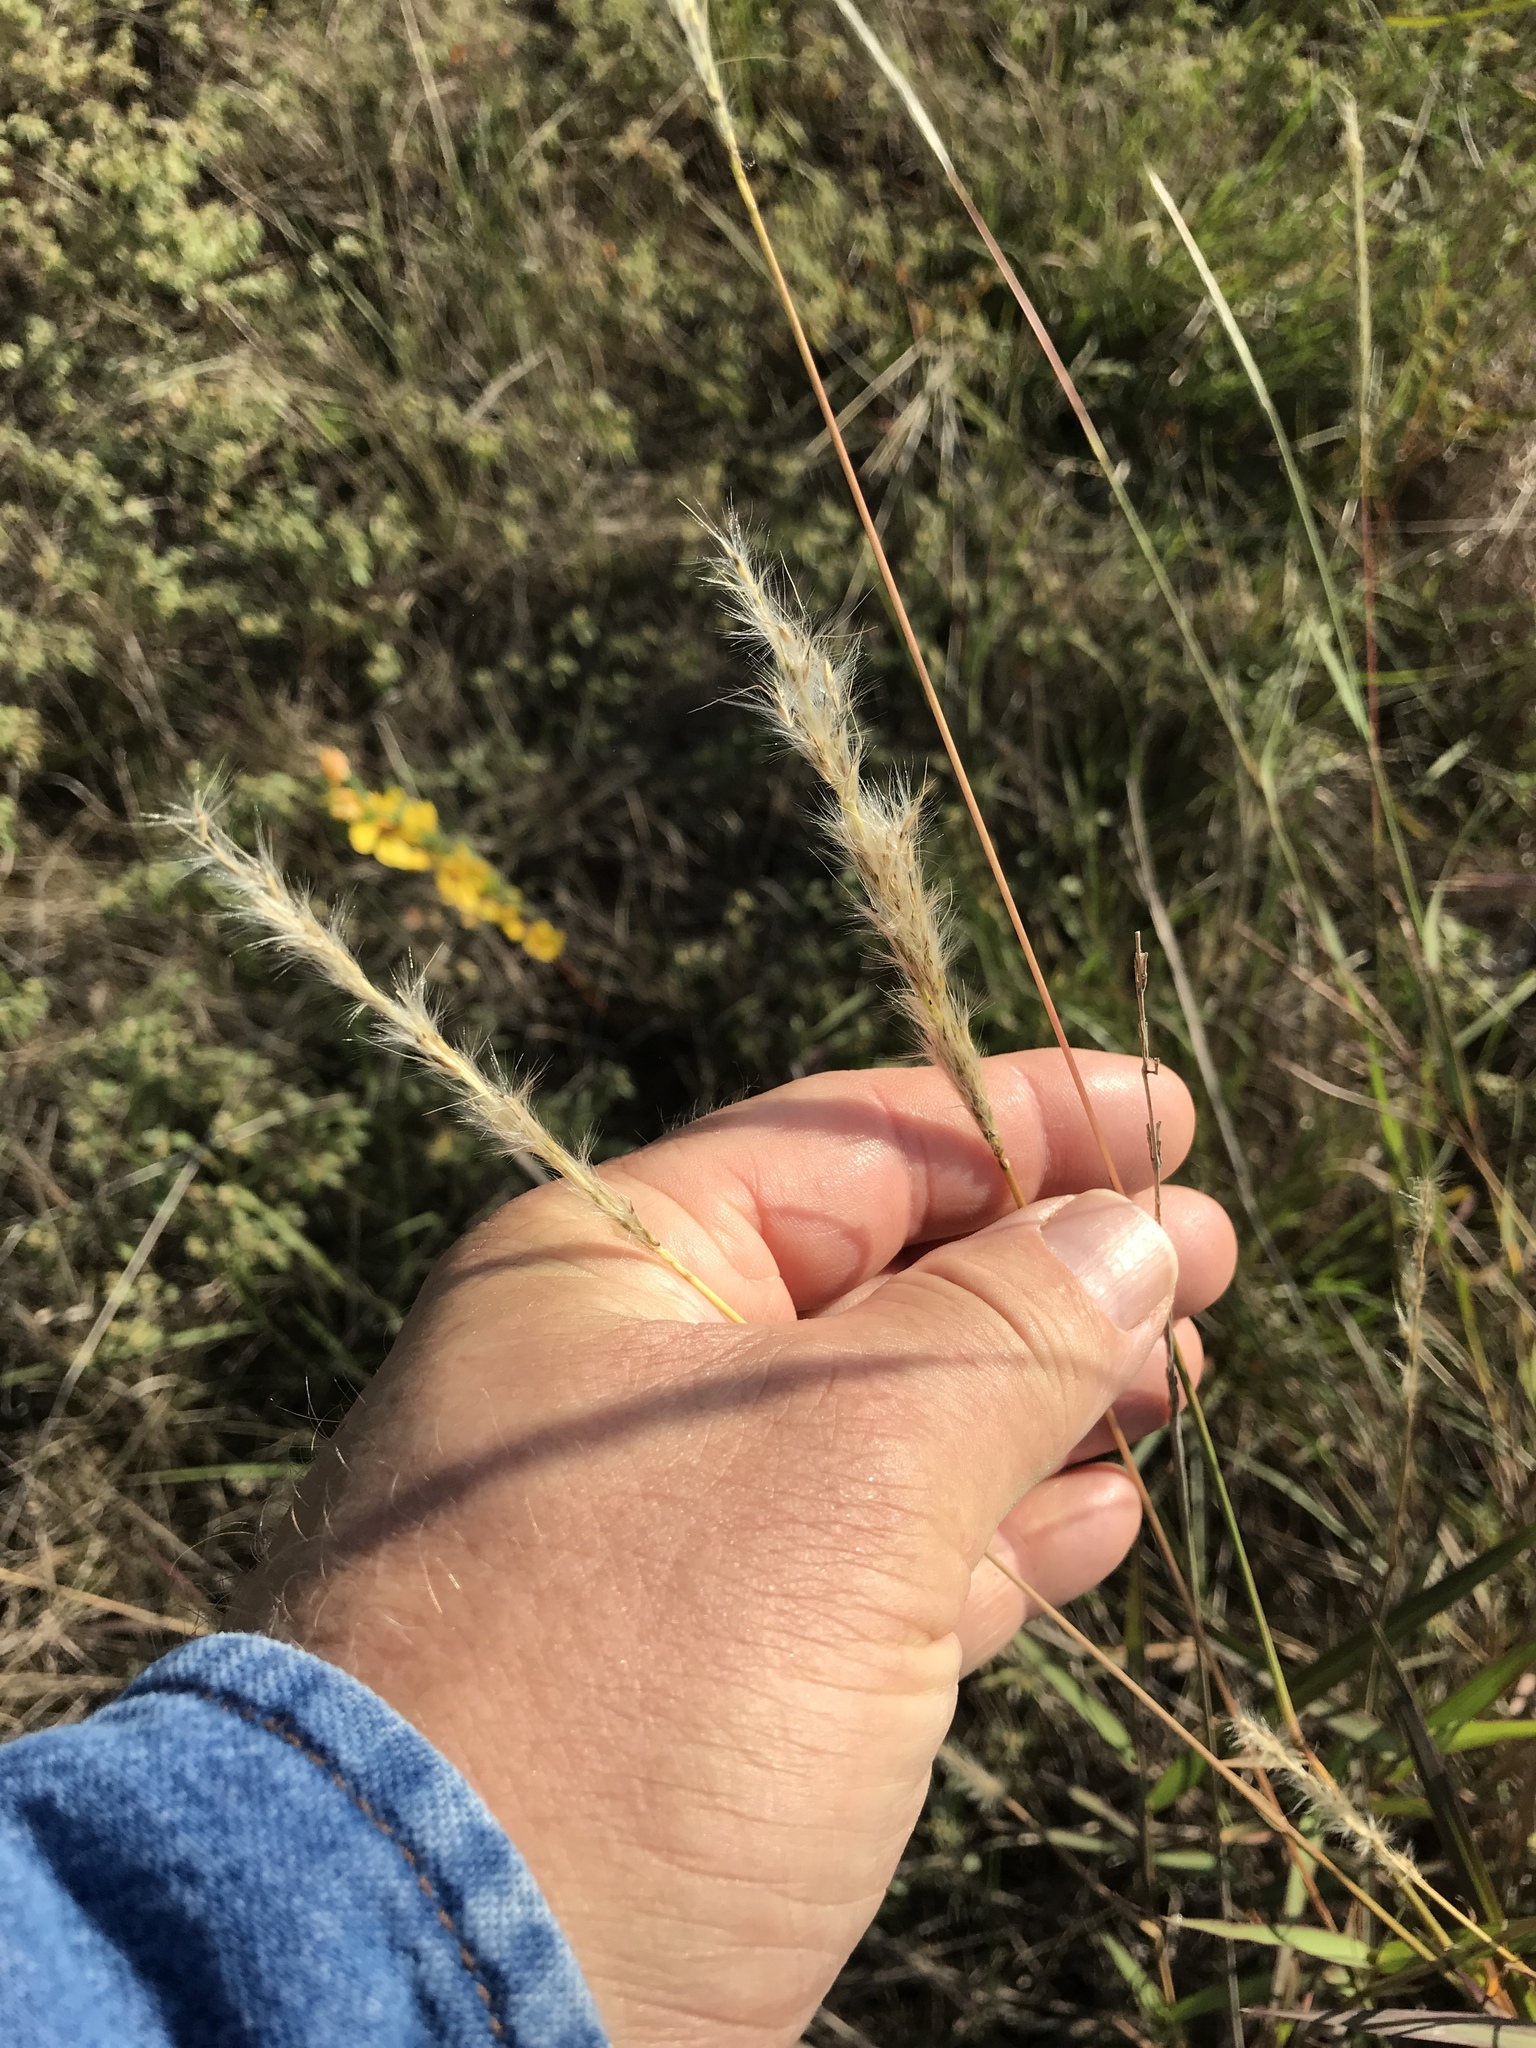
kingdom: Plantae
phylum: Tracheophyta
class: Liliopsida
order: Poales
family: Poaceae
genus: Bothriochloa
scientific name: Bothriochloa torreyana
